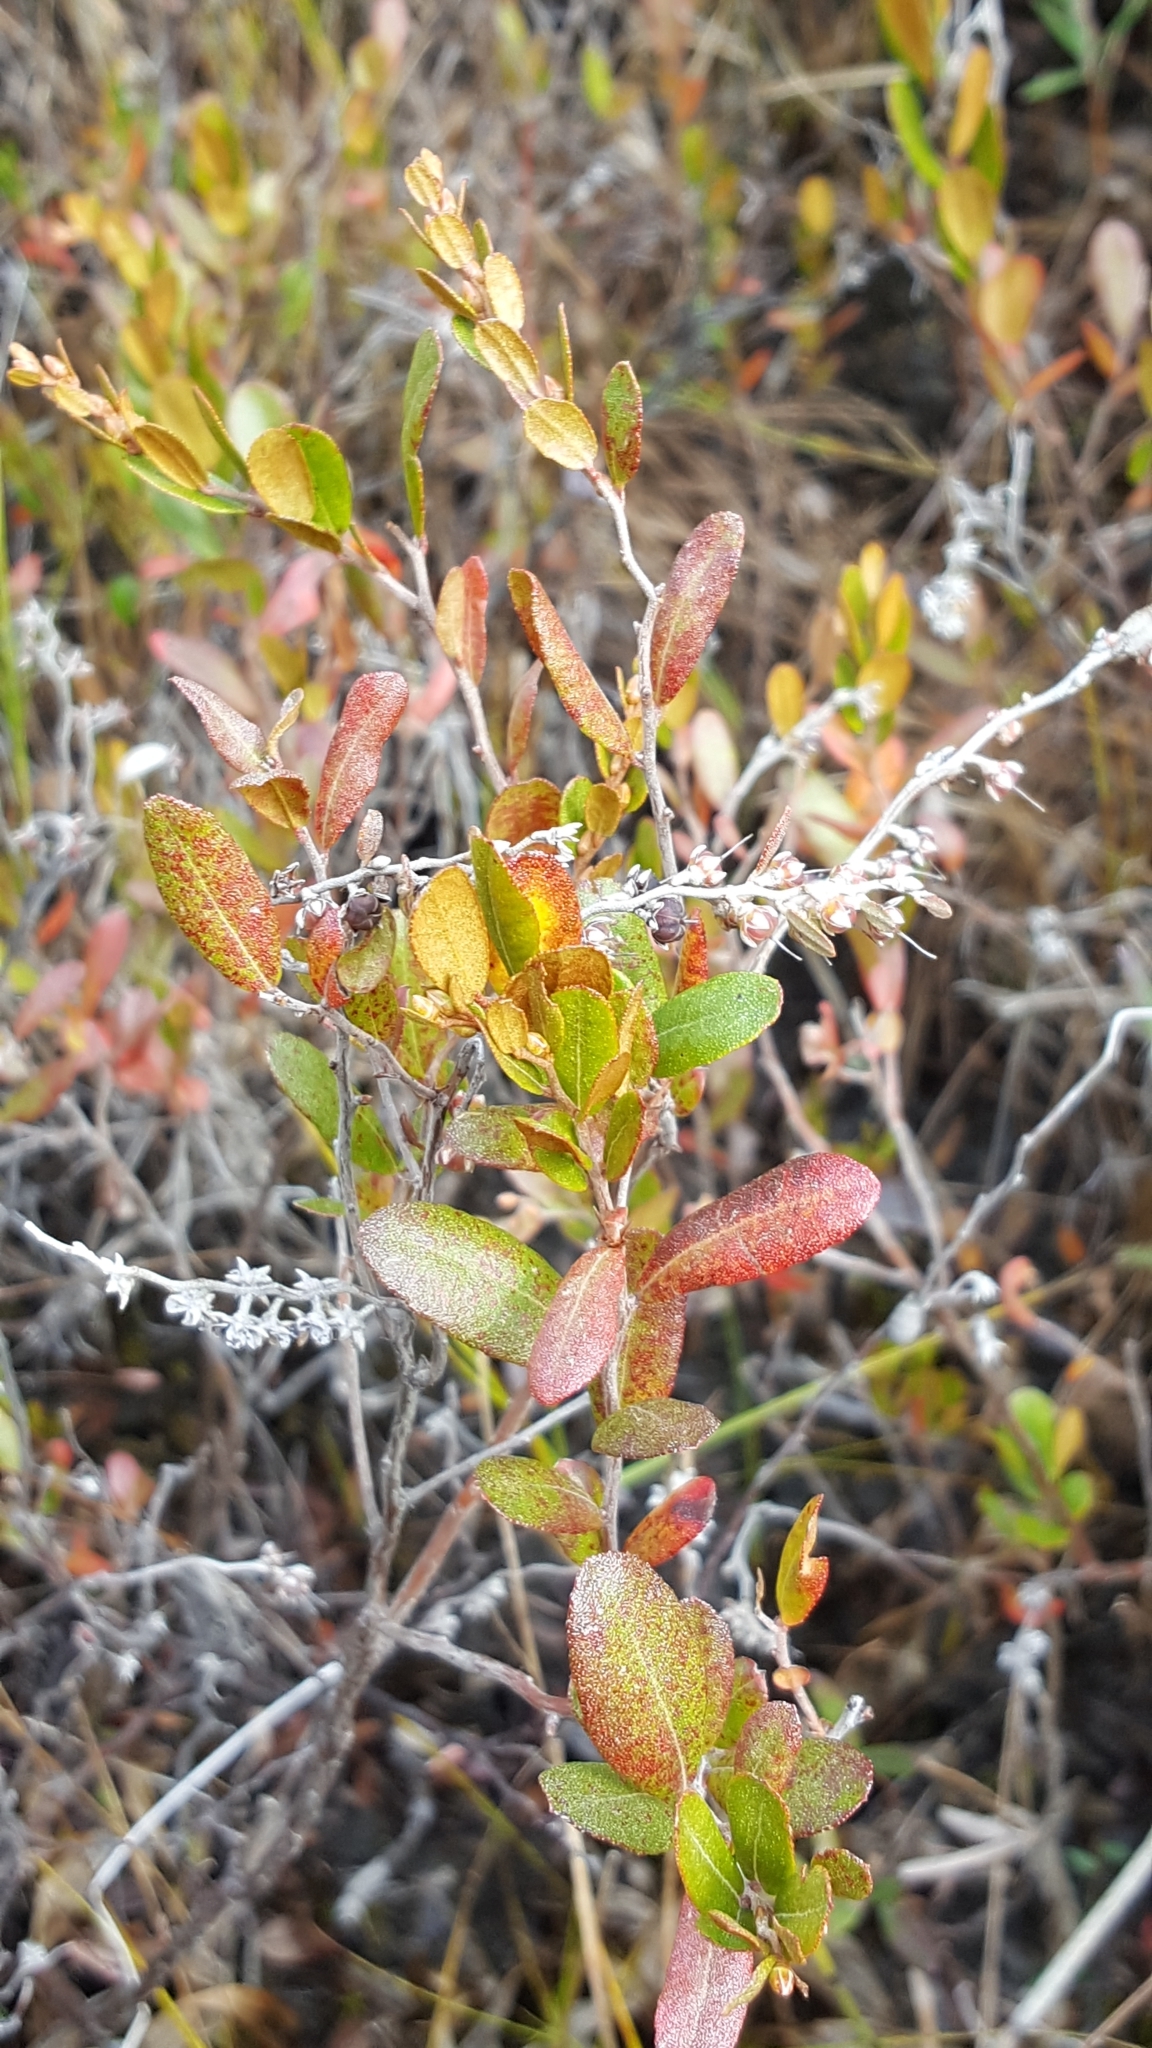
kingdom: Plantae
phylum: Tracheophyta
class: Magnoliopsida
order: Ericales
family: Ericaceae
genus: Chamaedaphne
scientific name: Chamaedaphne calyculata
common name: Leatherleaf
